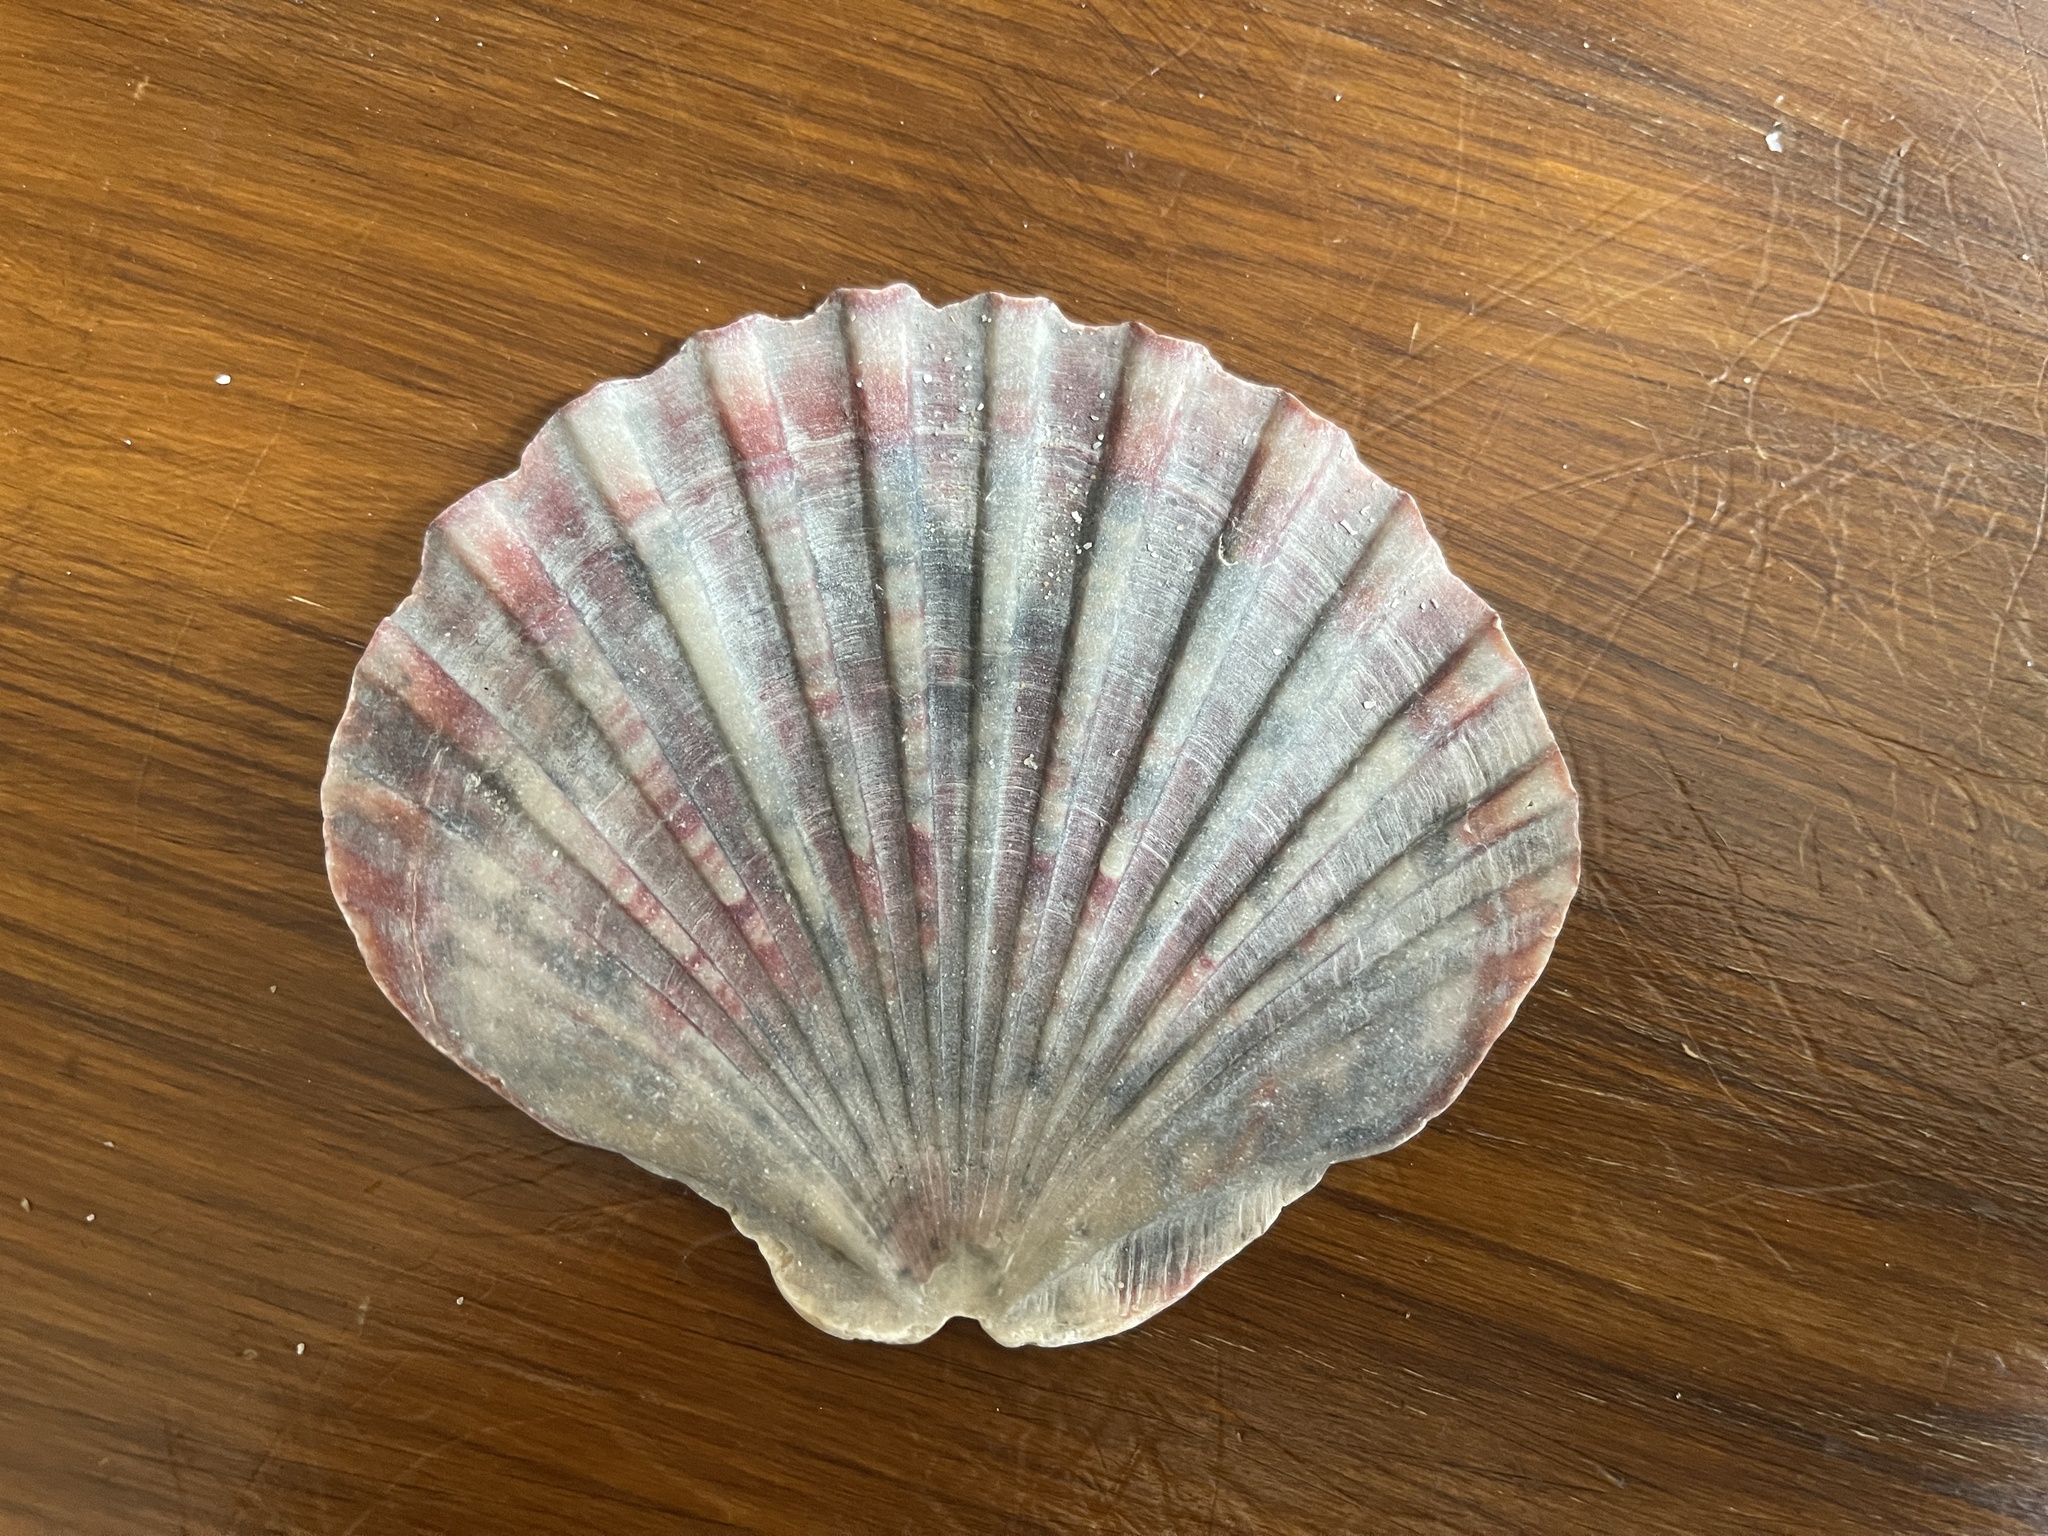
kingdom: Animalia
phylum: Mollusca
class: Bivalvia
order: Pectinida
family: Pectinidae
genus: Pecten
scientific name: Pecten fumatus
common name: Australian scallop
